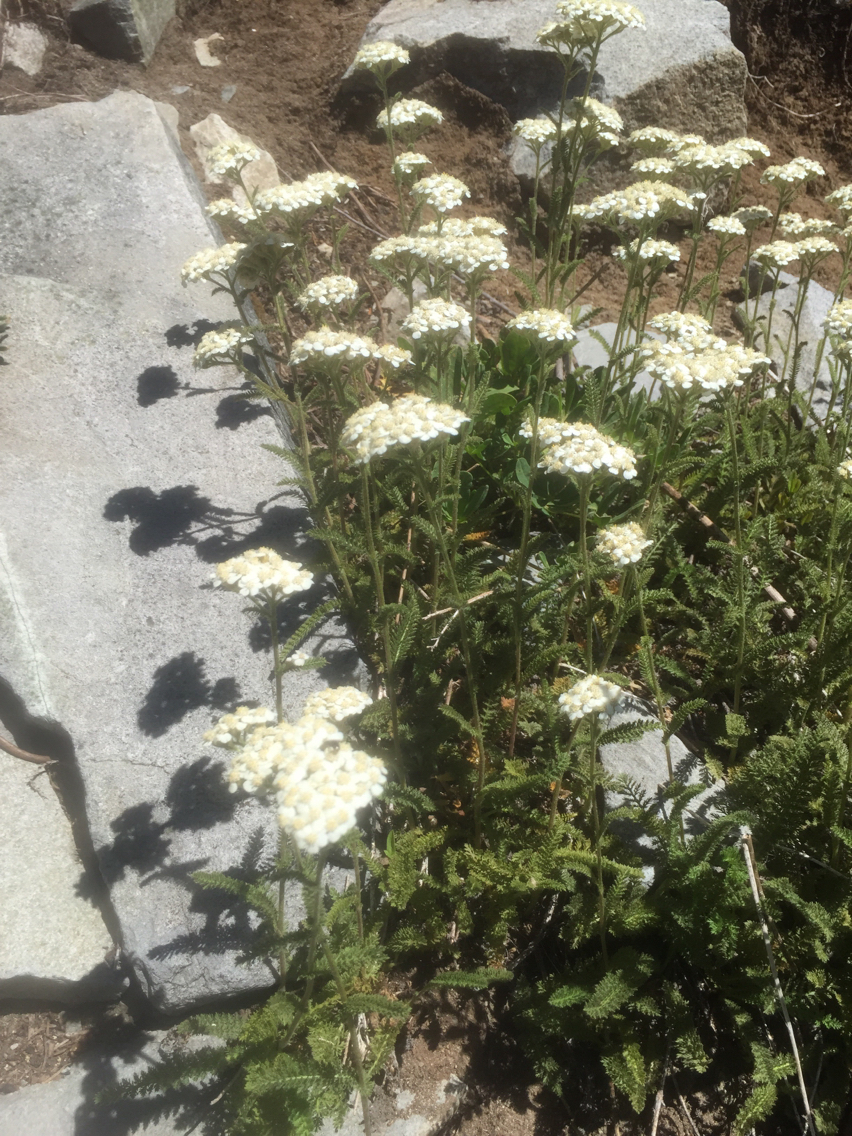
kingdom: Plantae
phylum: Tracheophyta
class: Magnoliopsida
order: Asterales
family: Asteraceae
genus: Achillea
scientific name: Achillea millefolium
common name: Yarrow
